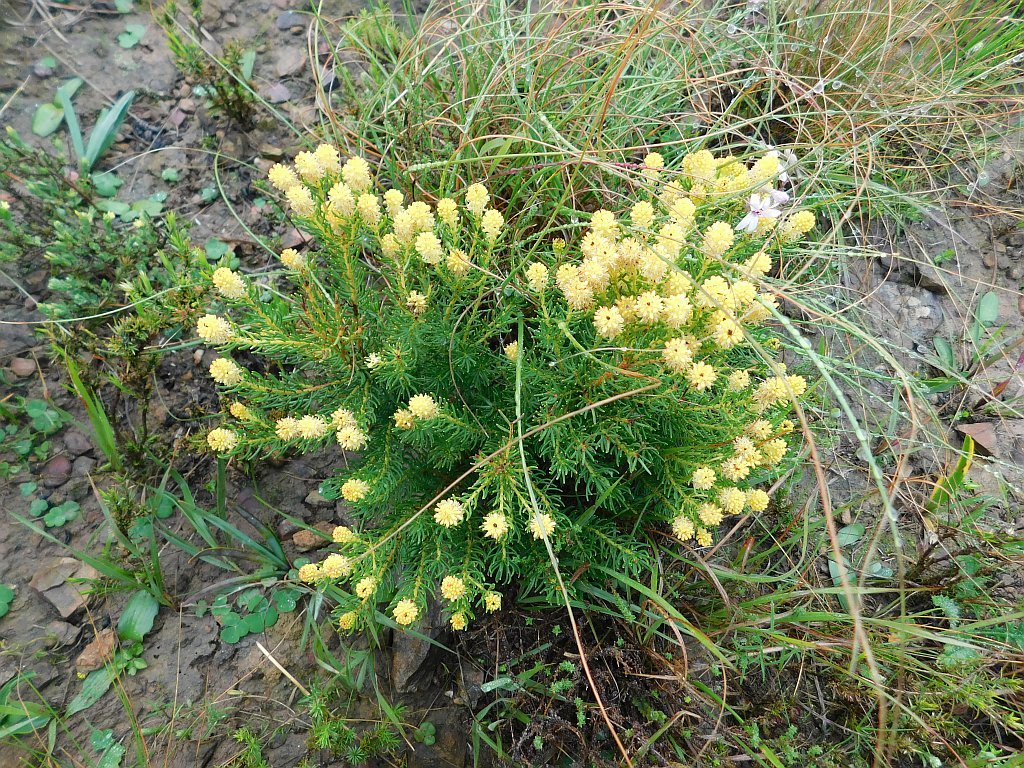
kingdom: Plantae
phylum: Tracheophyta
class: Magnoliopsida
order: Proteales
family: Proteaceae
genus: Leucadendron
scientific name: Leucadendron teretifolium
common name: Needle-leaf conebush
